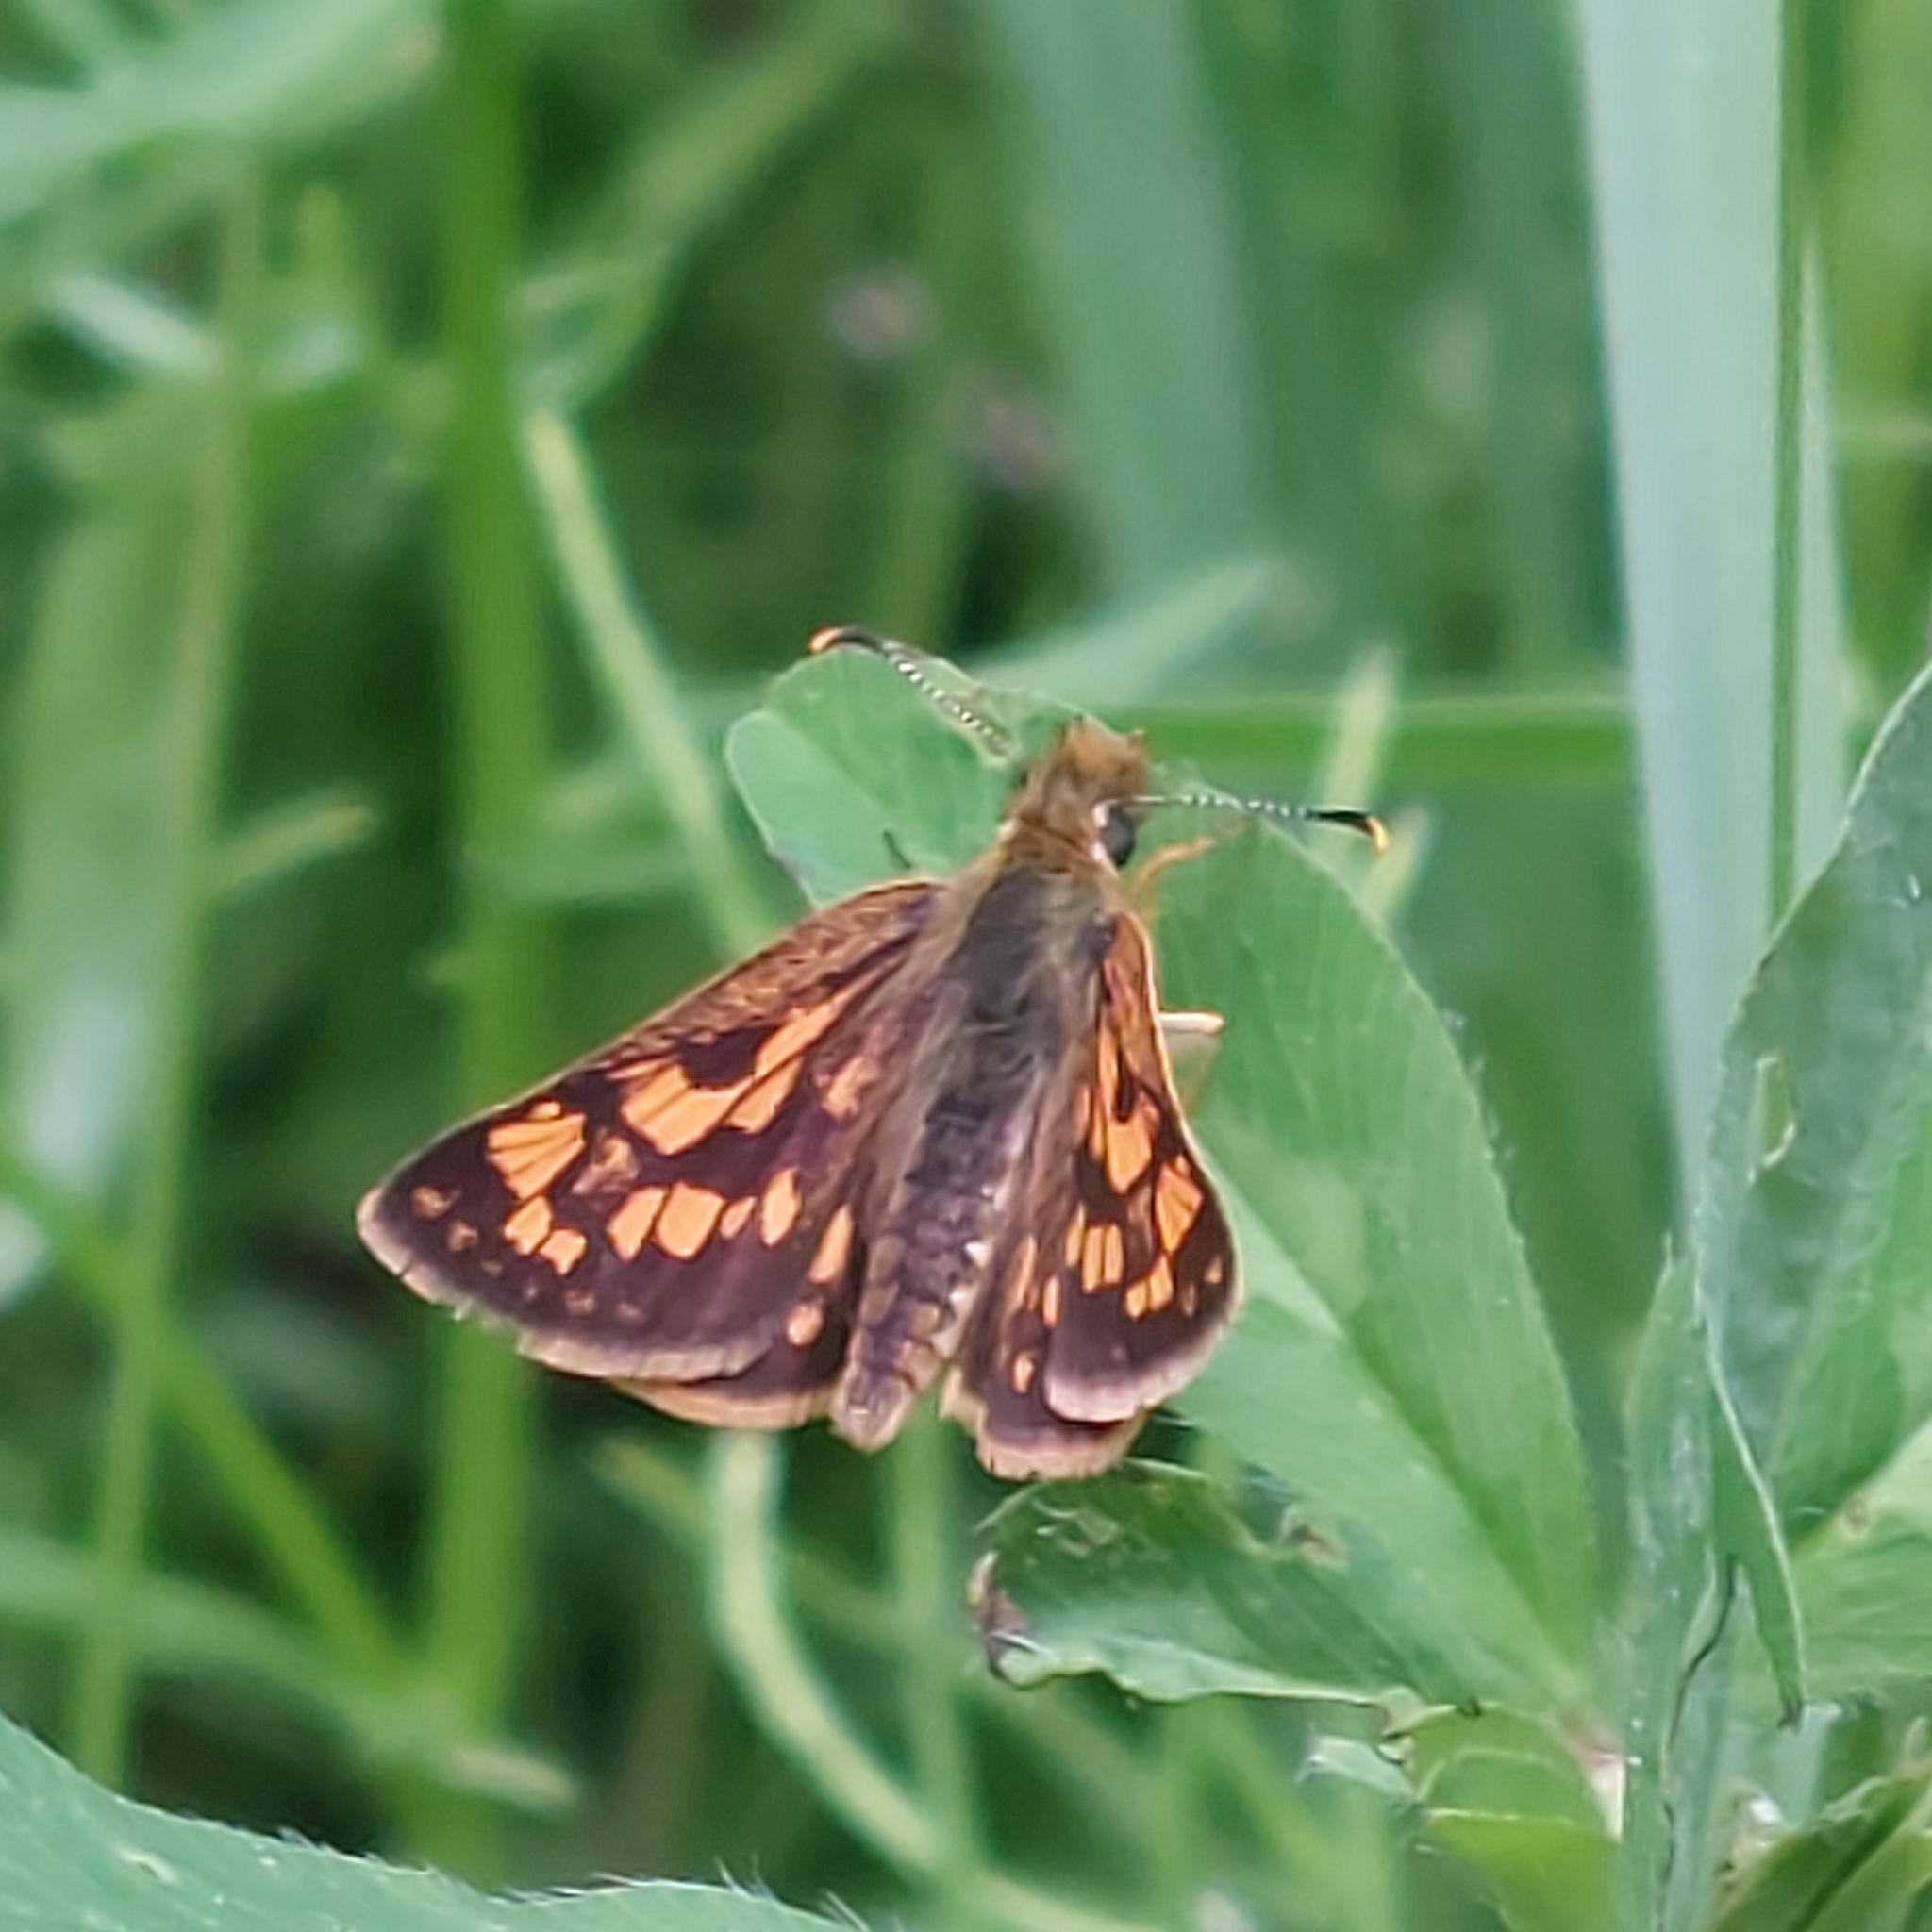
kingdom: Animalia
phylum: Arthropoda
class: Insecta
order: Lepidoptera
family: Hesperiidae
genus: Carterocephalus
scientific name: Carterocephalus mandan
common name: Arctic skipperling
